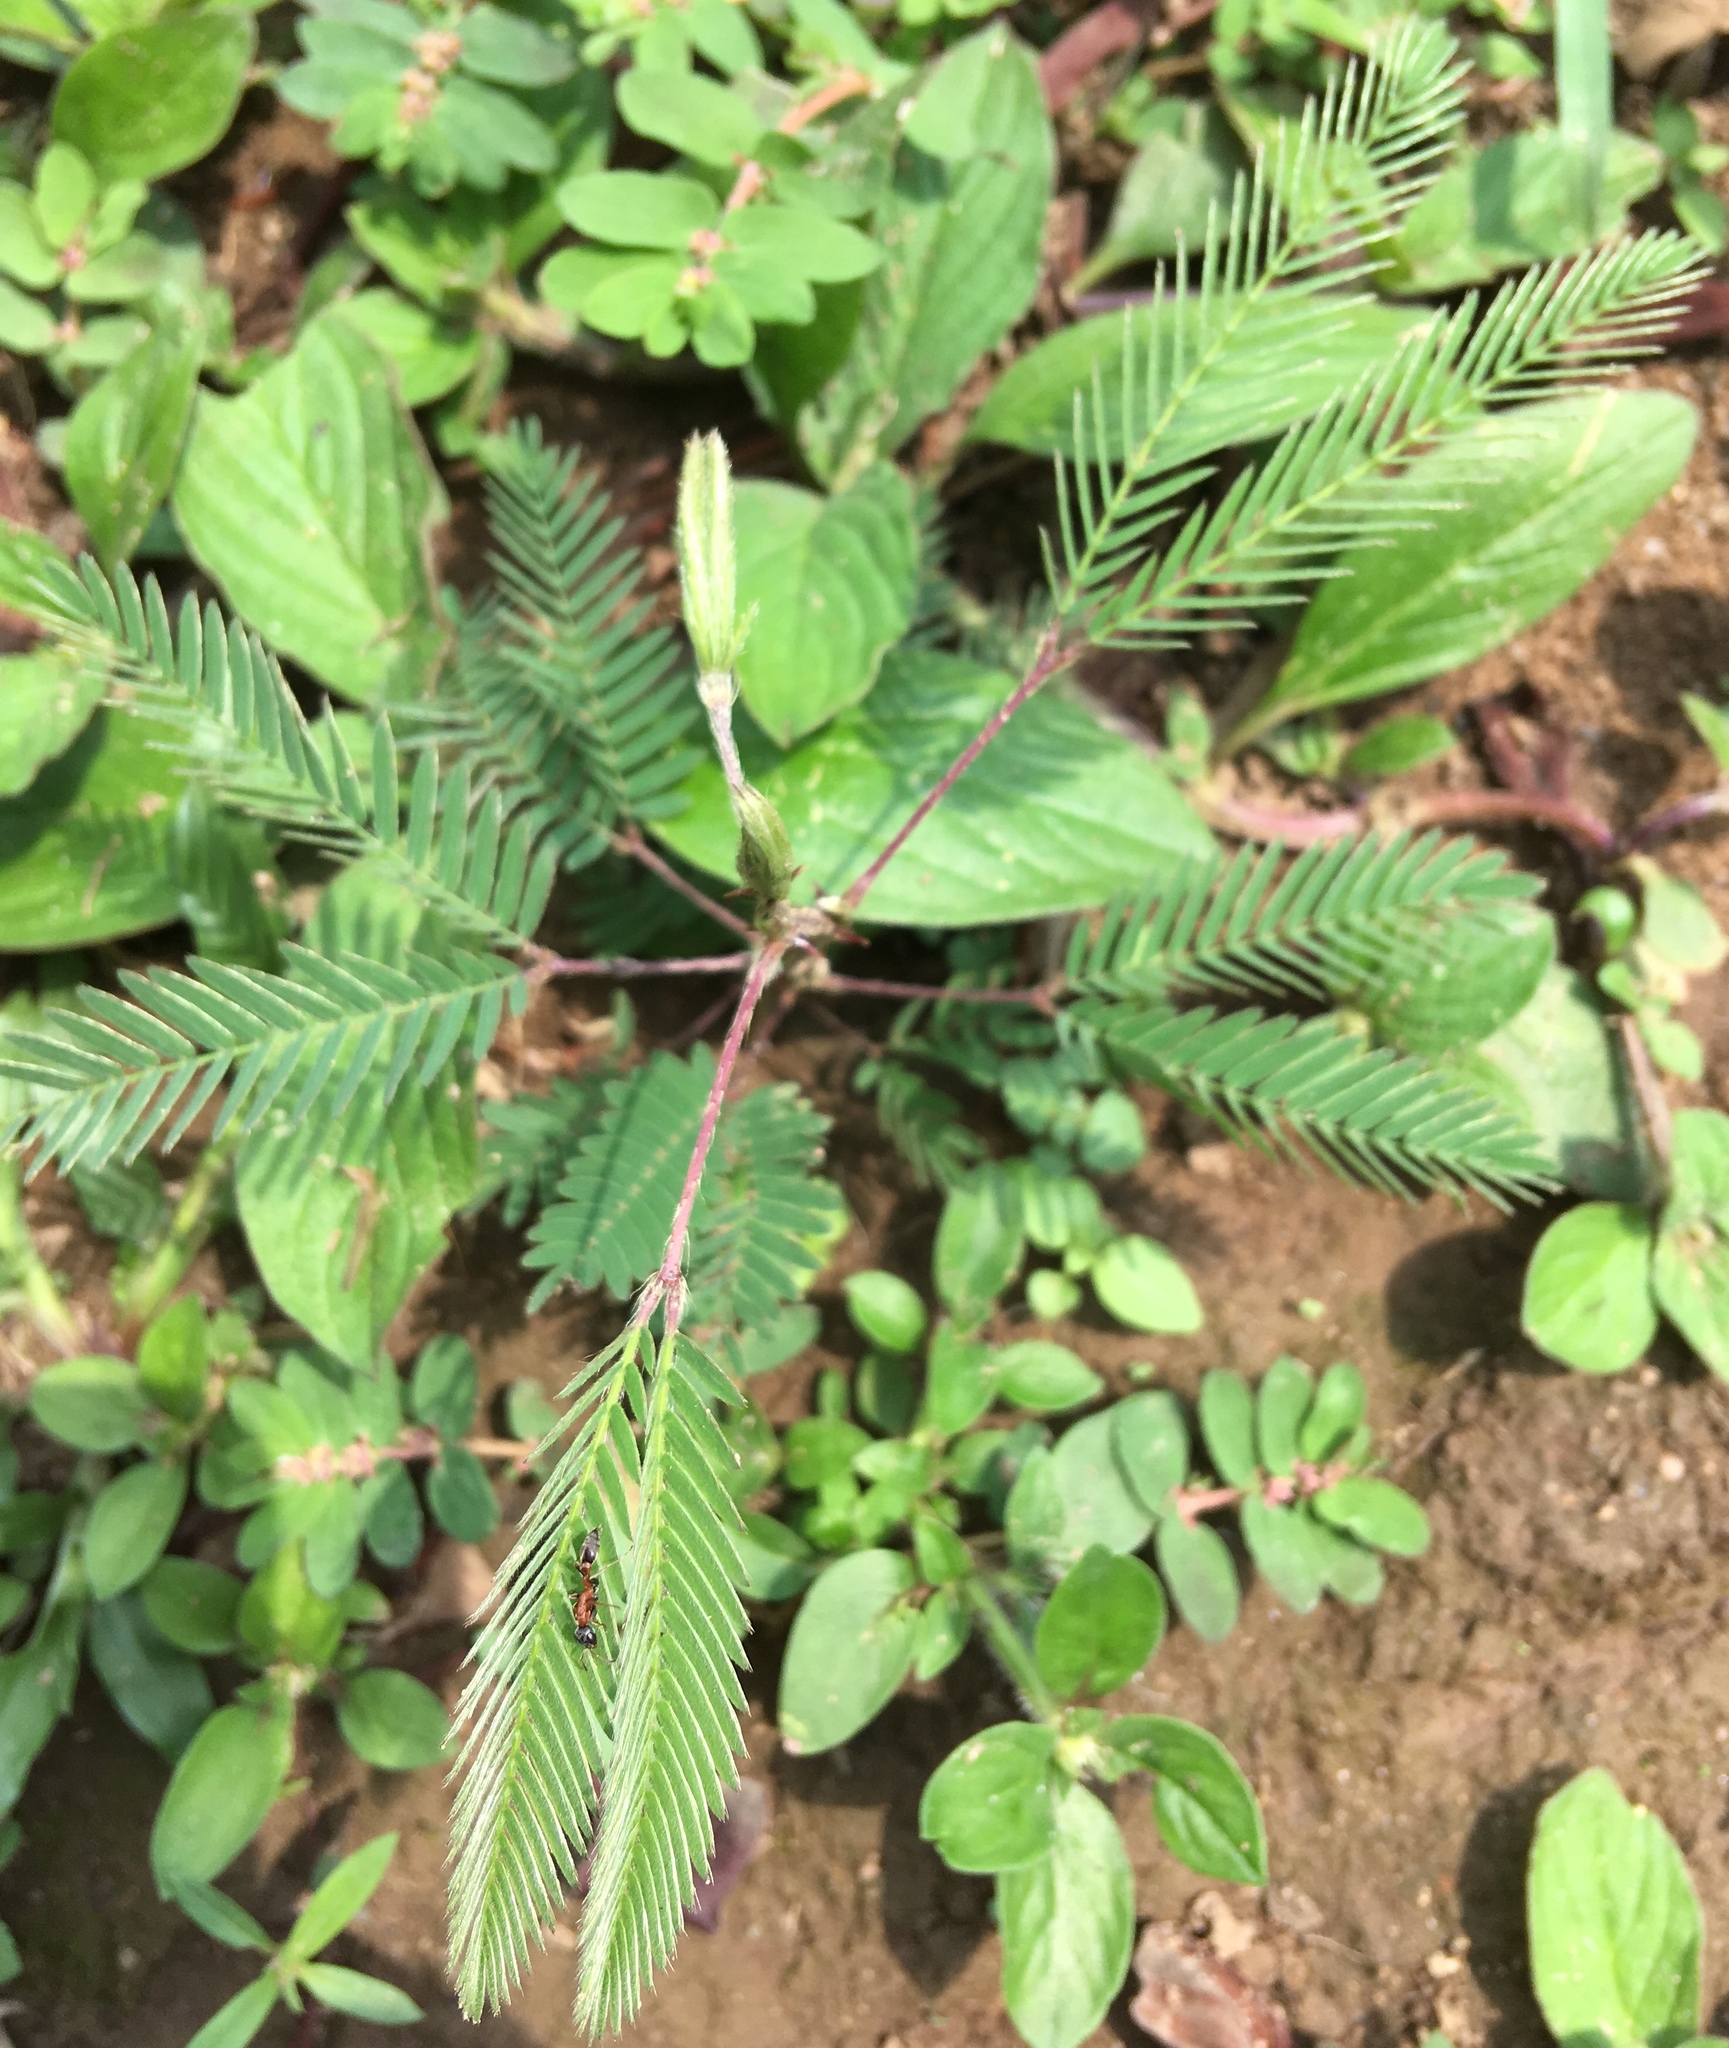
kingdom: Plantae
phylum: Tracheophyta
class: Magnoliopsida
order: Fabales
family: Fabaceae
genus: Mimosa
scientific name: Mimosa pudica
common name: Sensitive plant
